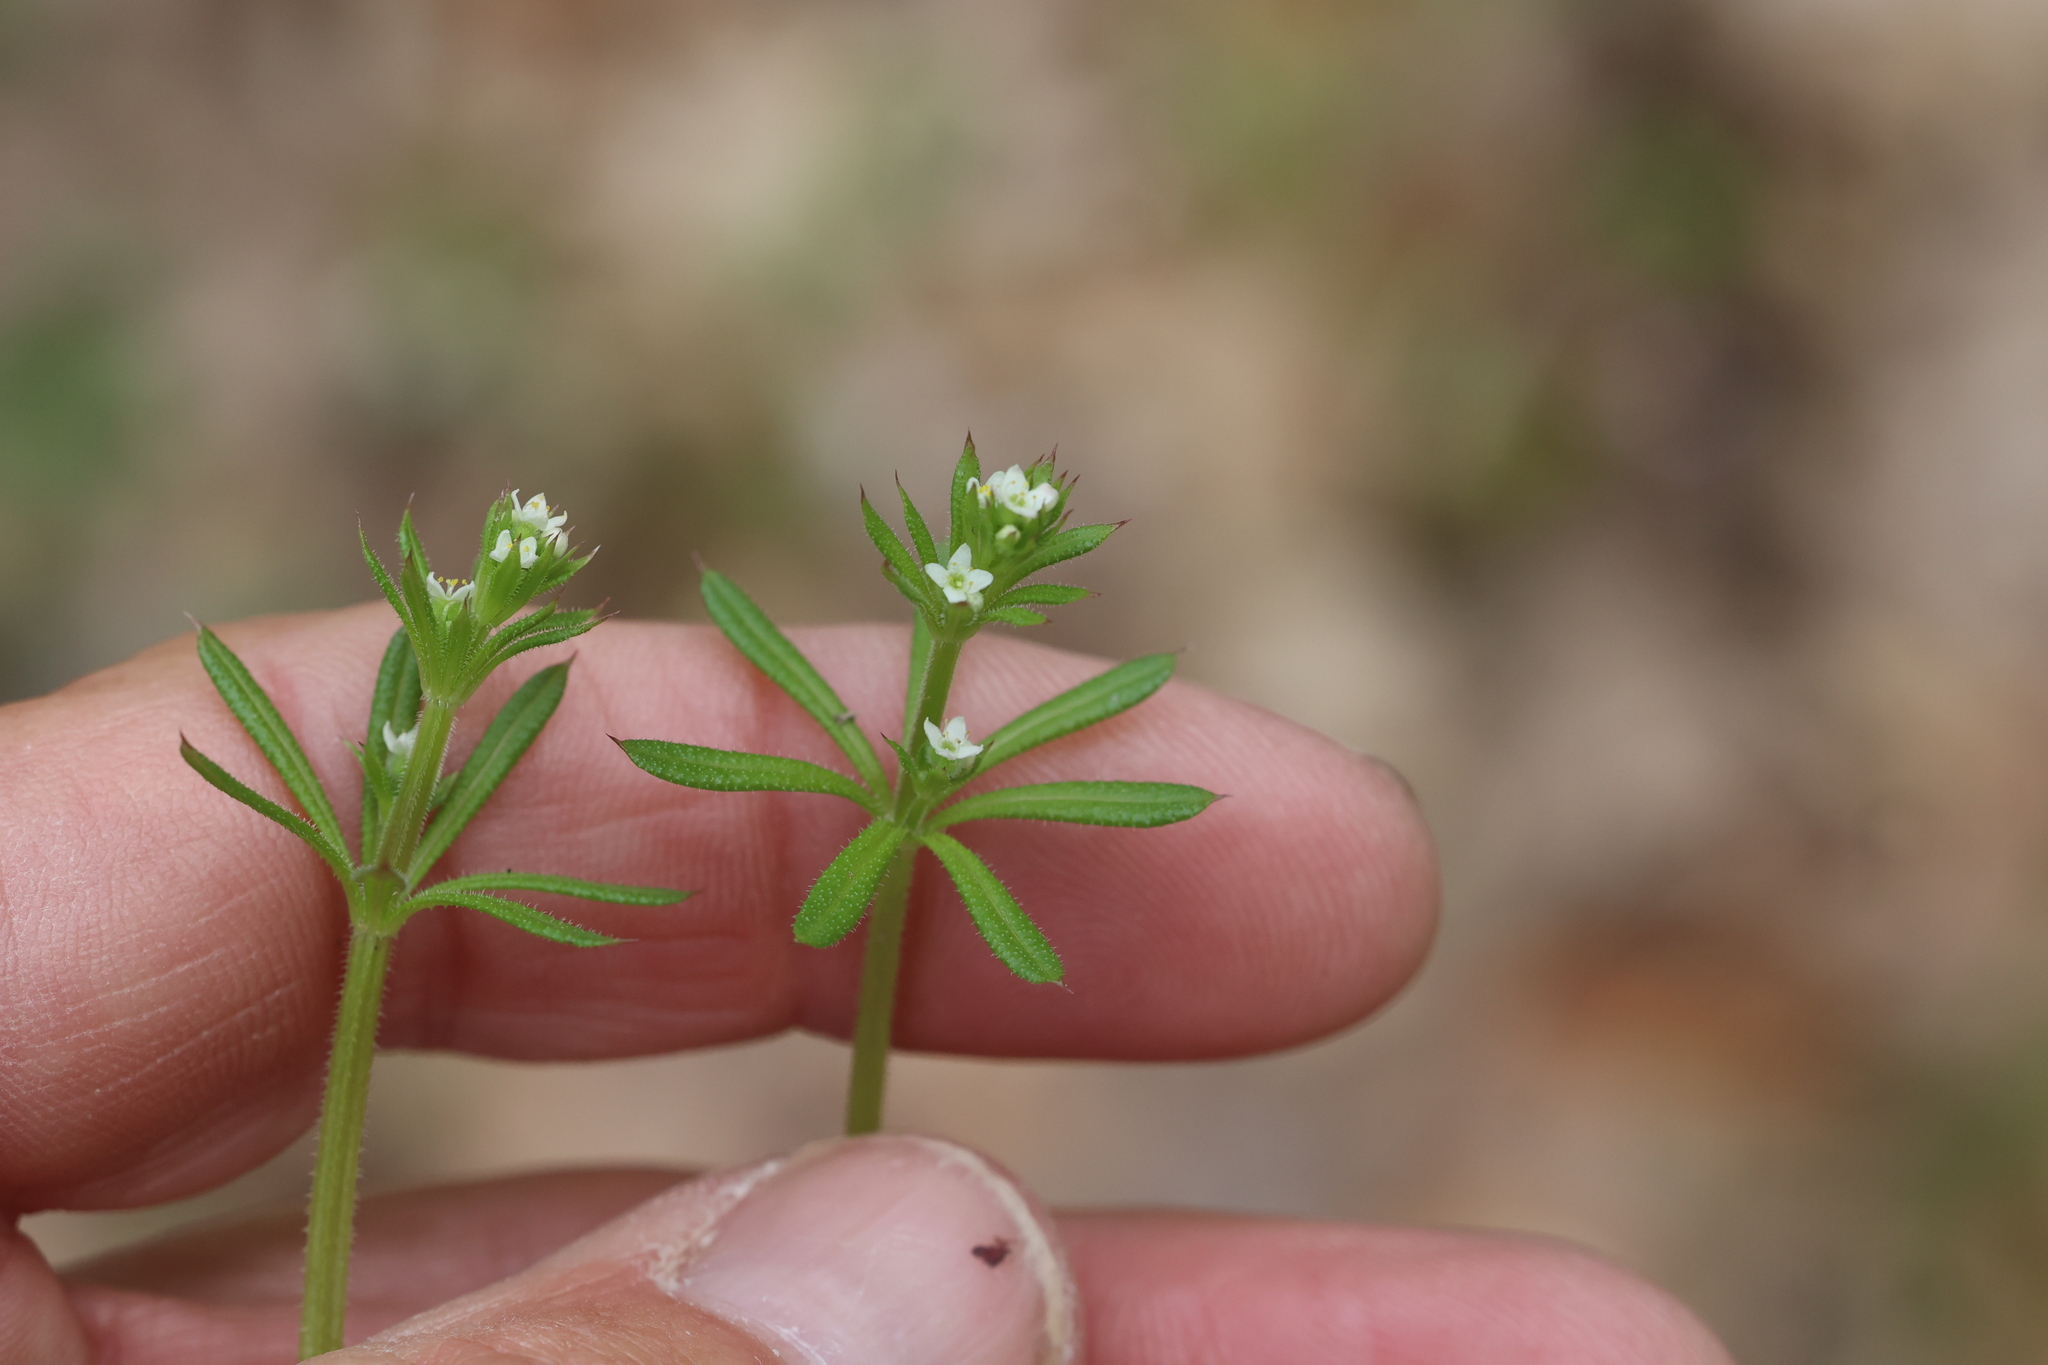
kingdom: Plantae
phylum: Tracheophyta
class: Magnoliopsida
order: Gentianales
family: Rubiaceae
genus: Galium
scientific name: Galium aparine
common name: Cleavers
